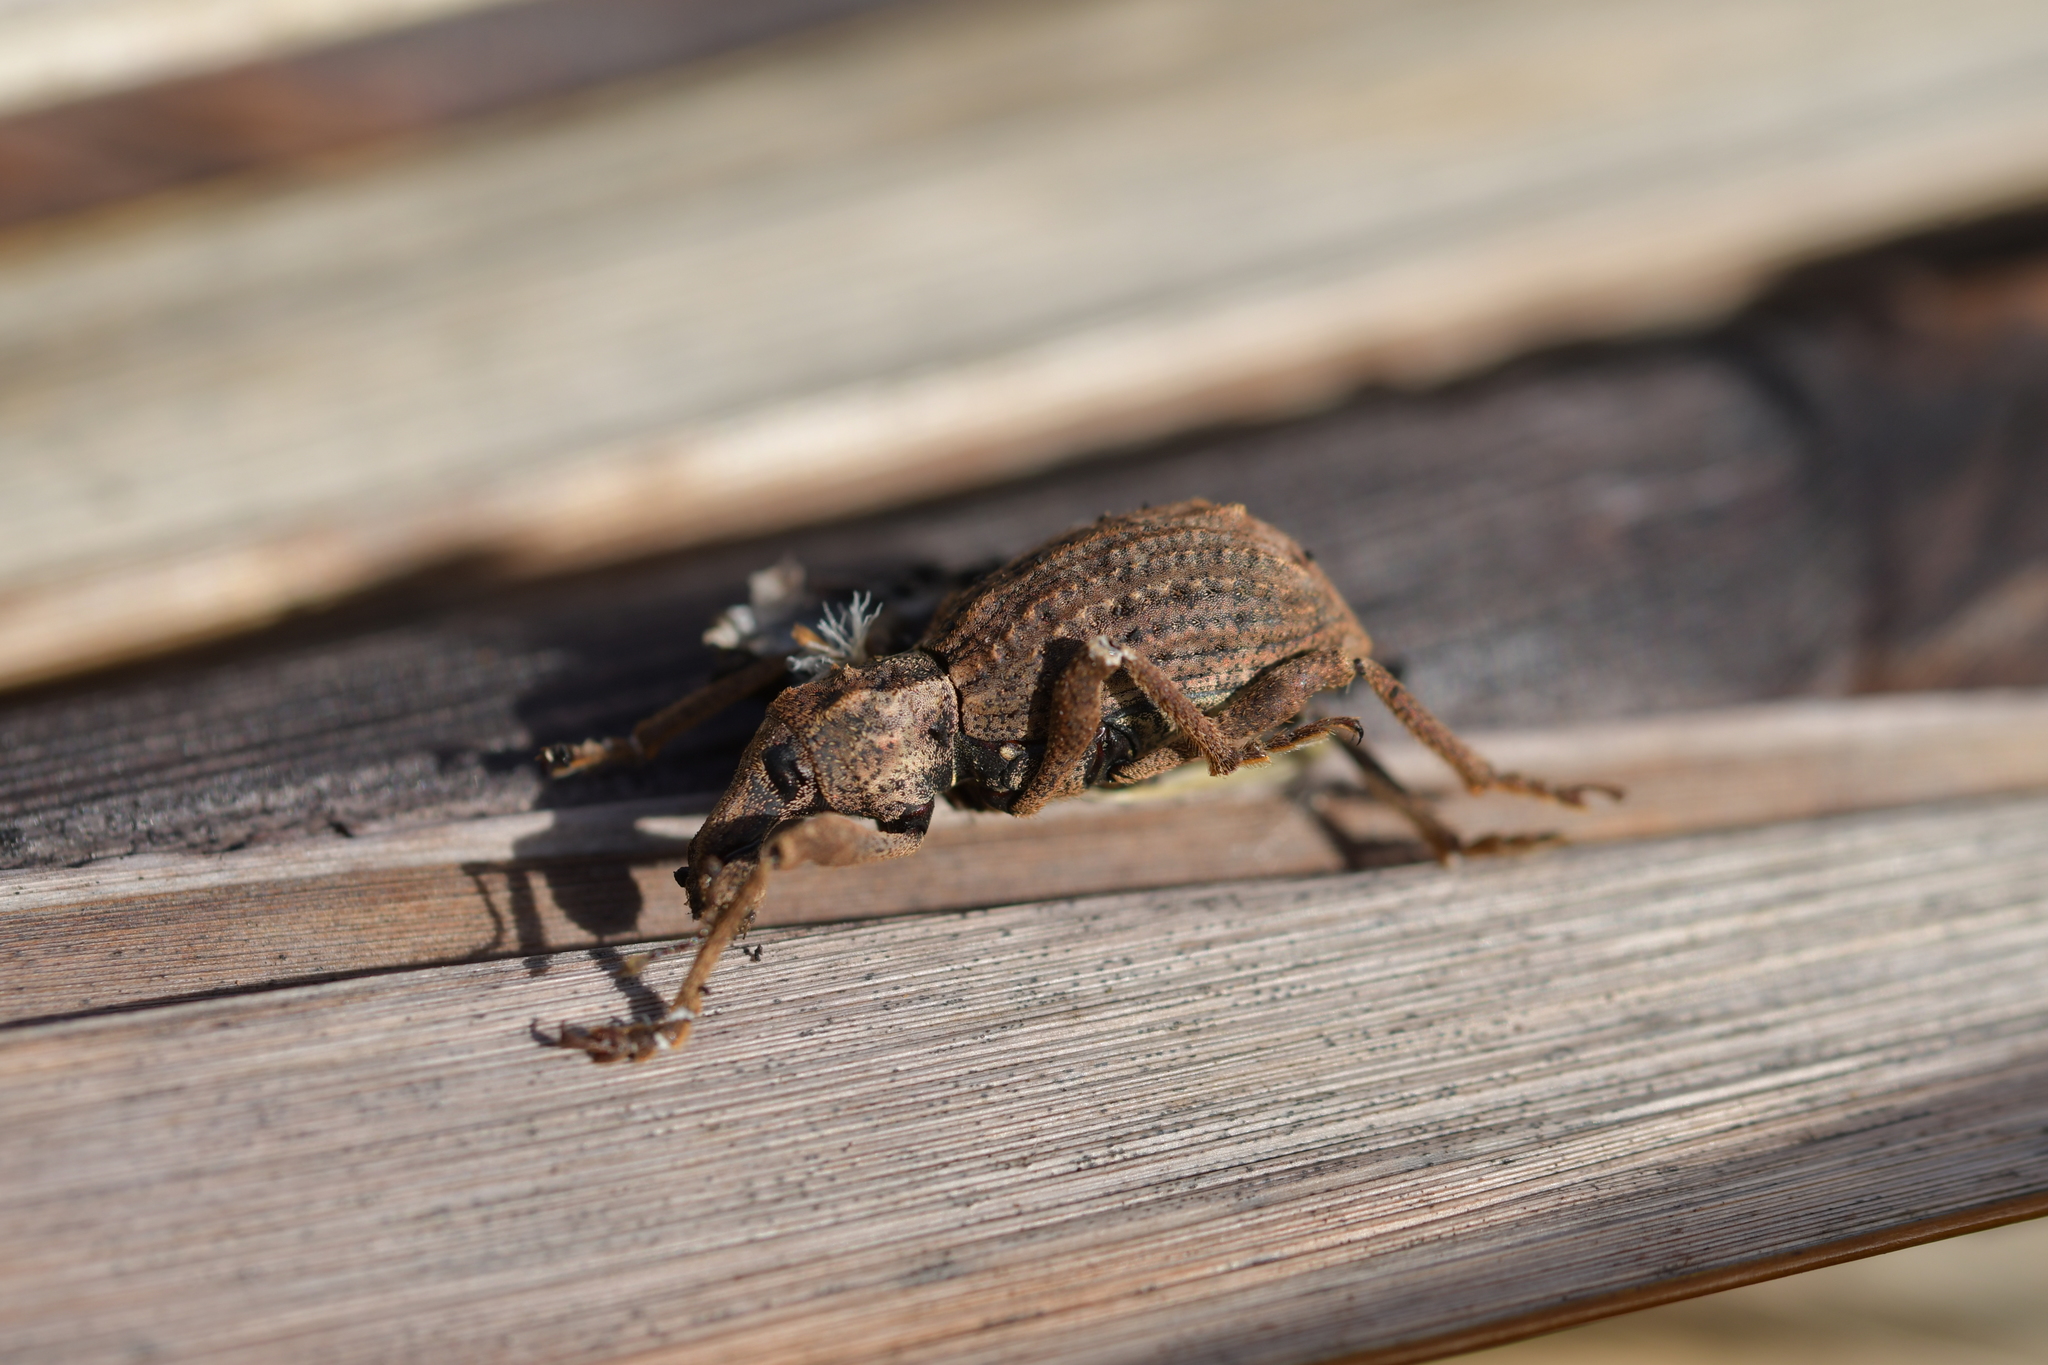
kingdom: Animalia
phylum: Arthropoda
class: Insecta
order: Coleoptera
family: Curculionidae
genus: Anagotus
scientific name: Anagotus fairburni
